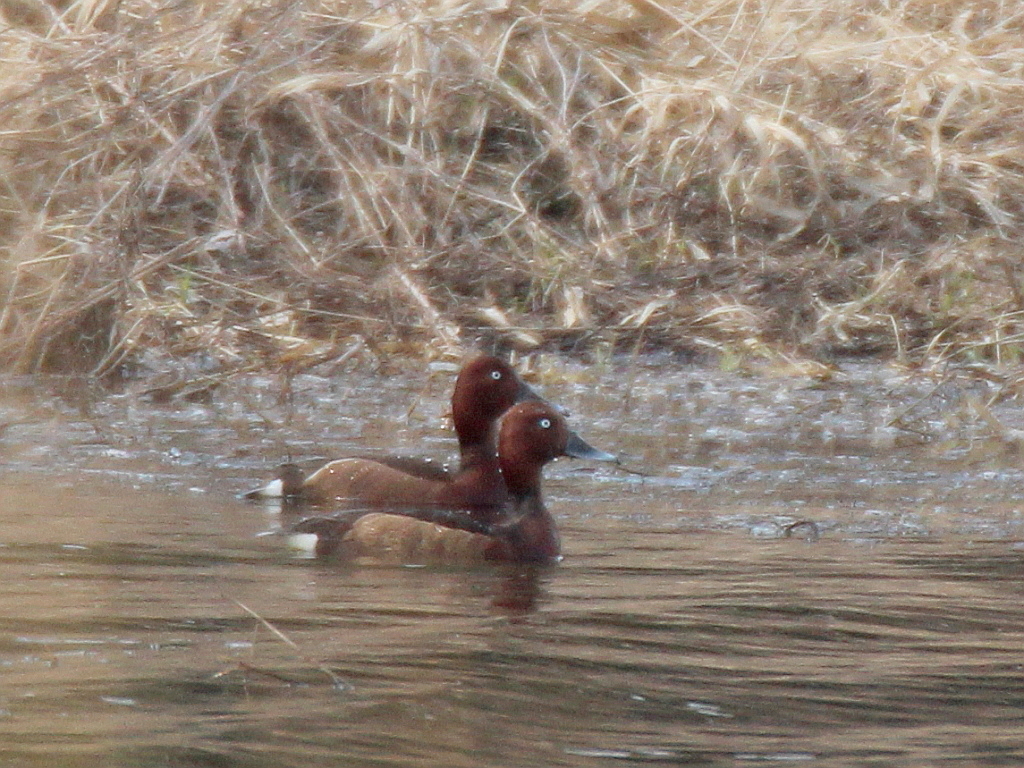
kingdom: Animalia
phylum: Chordata
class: Aves
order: Anseriformes
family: Anatidae
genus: Aythya
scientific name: Aythya nyroca
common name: Ferruginous duck
